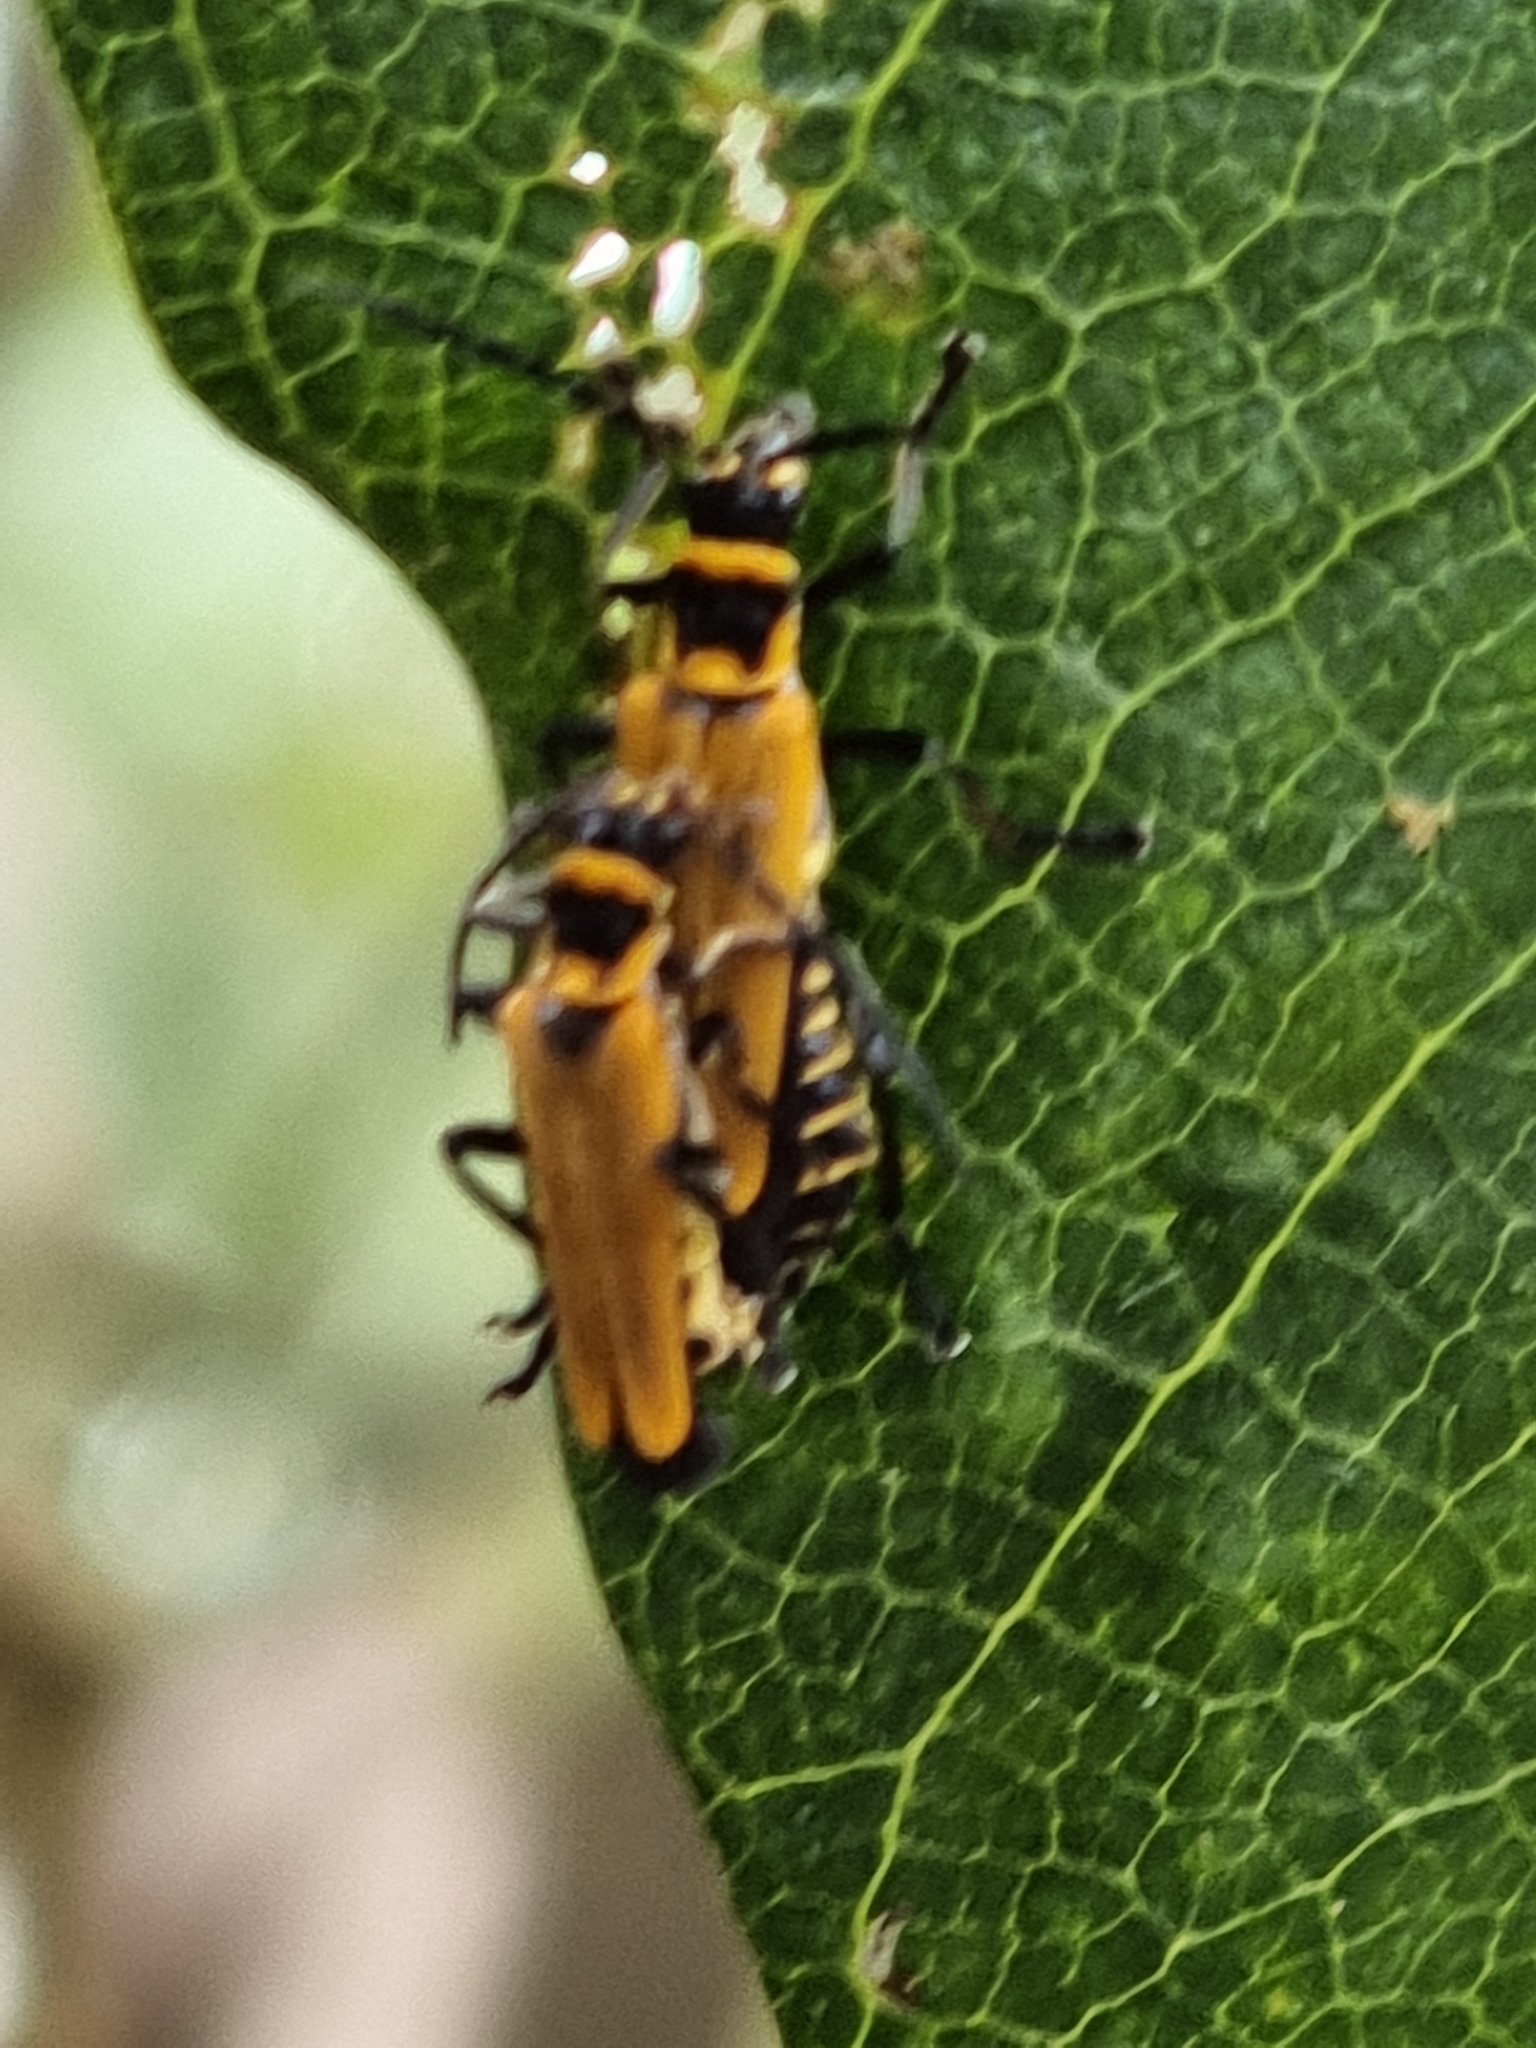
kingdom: Animalia
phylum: Arthropoda
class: Insecta
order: Coleoptera
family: Cantharidae
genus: Chauliognathus
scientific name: Chauliognathus
